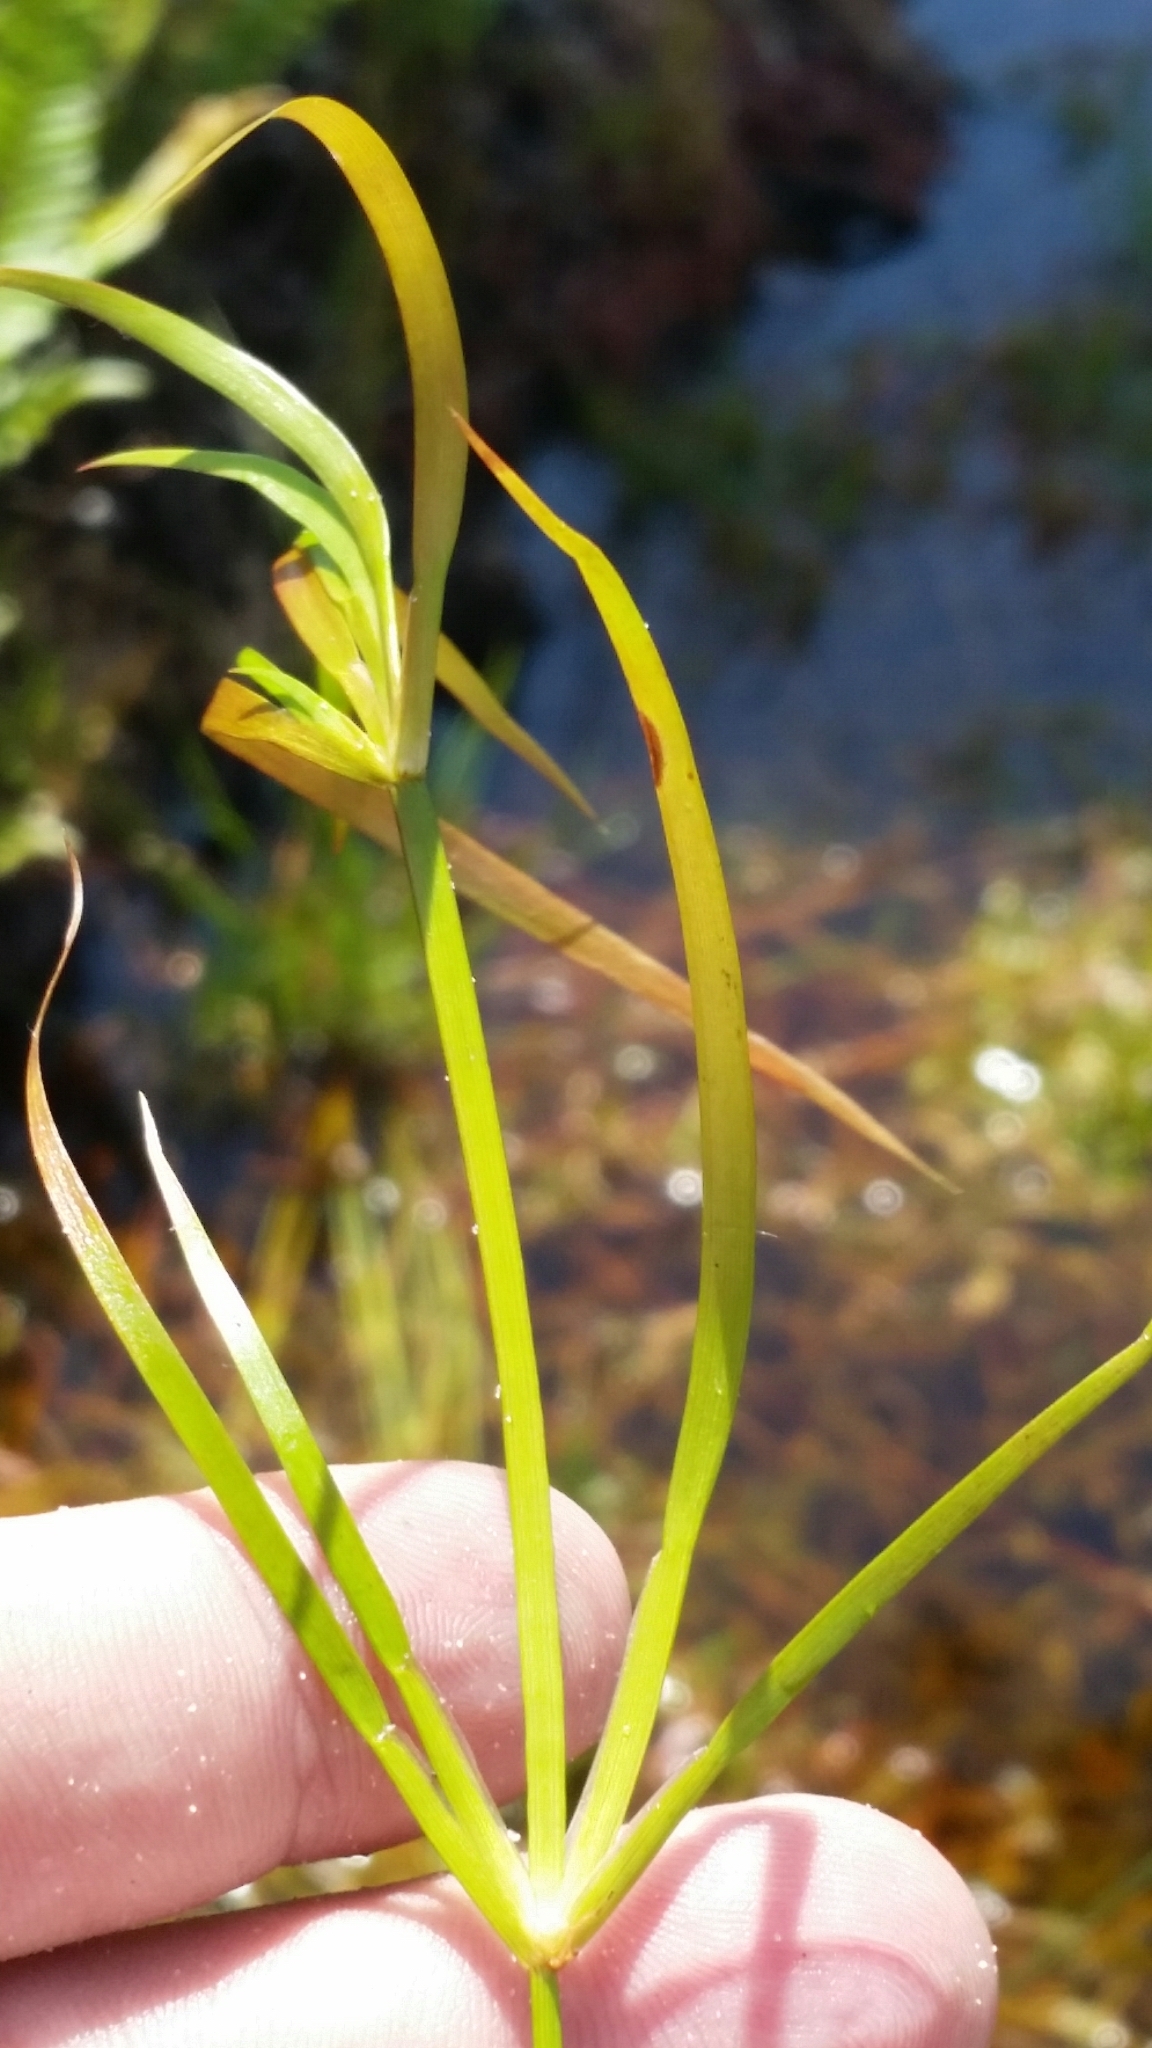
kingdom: Plantae
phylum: Tracheophyta
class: Liliopsida
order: Poales
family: Juncaceae
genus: Juncus
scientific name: Juncus repens
